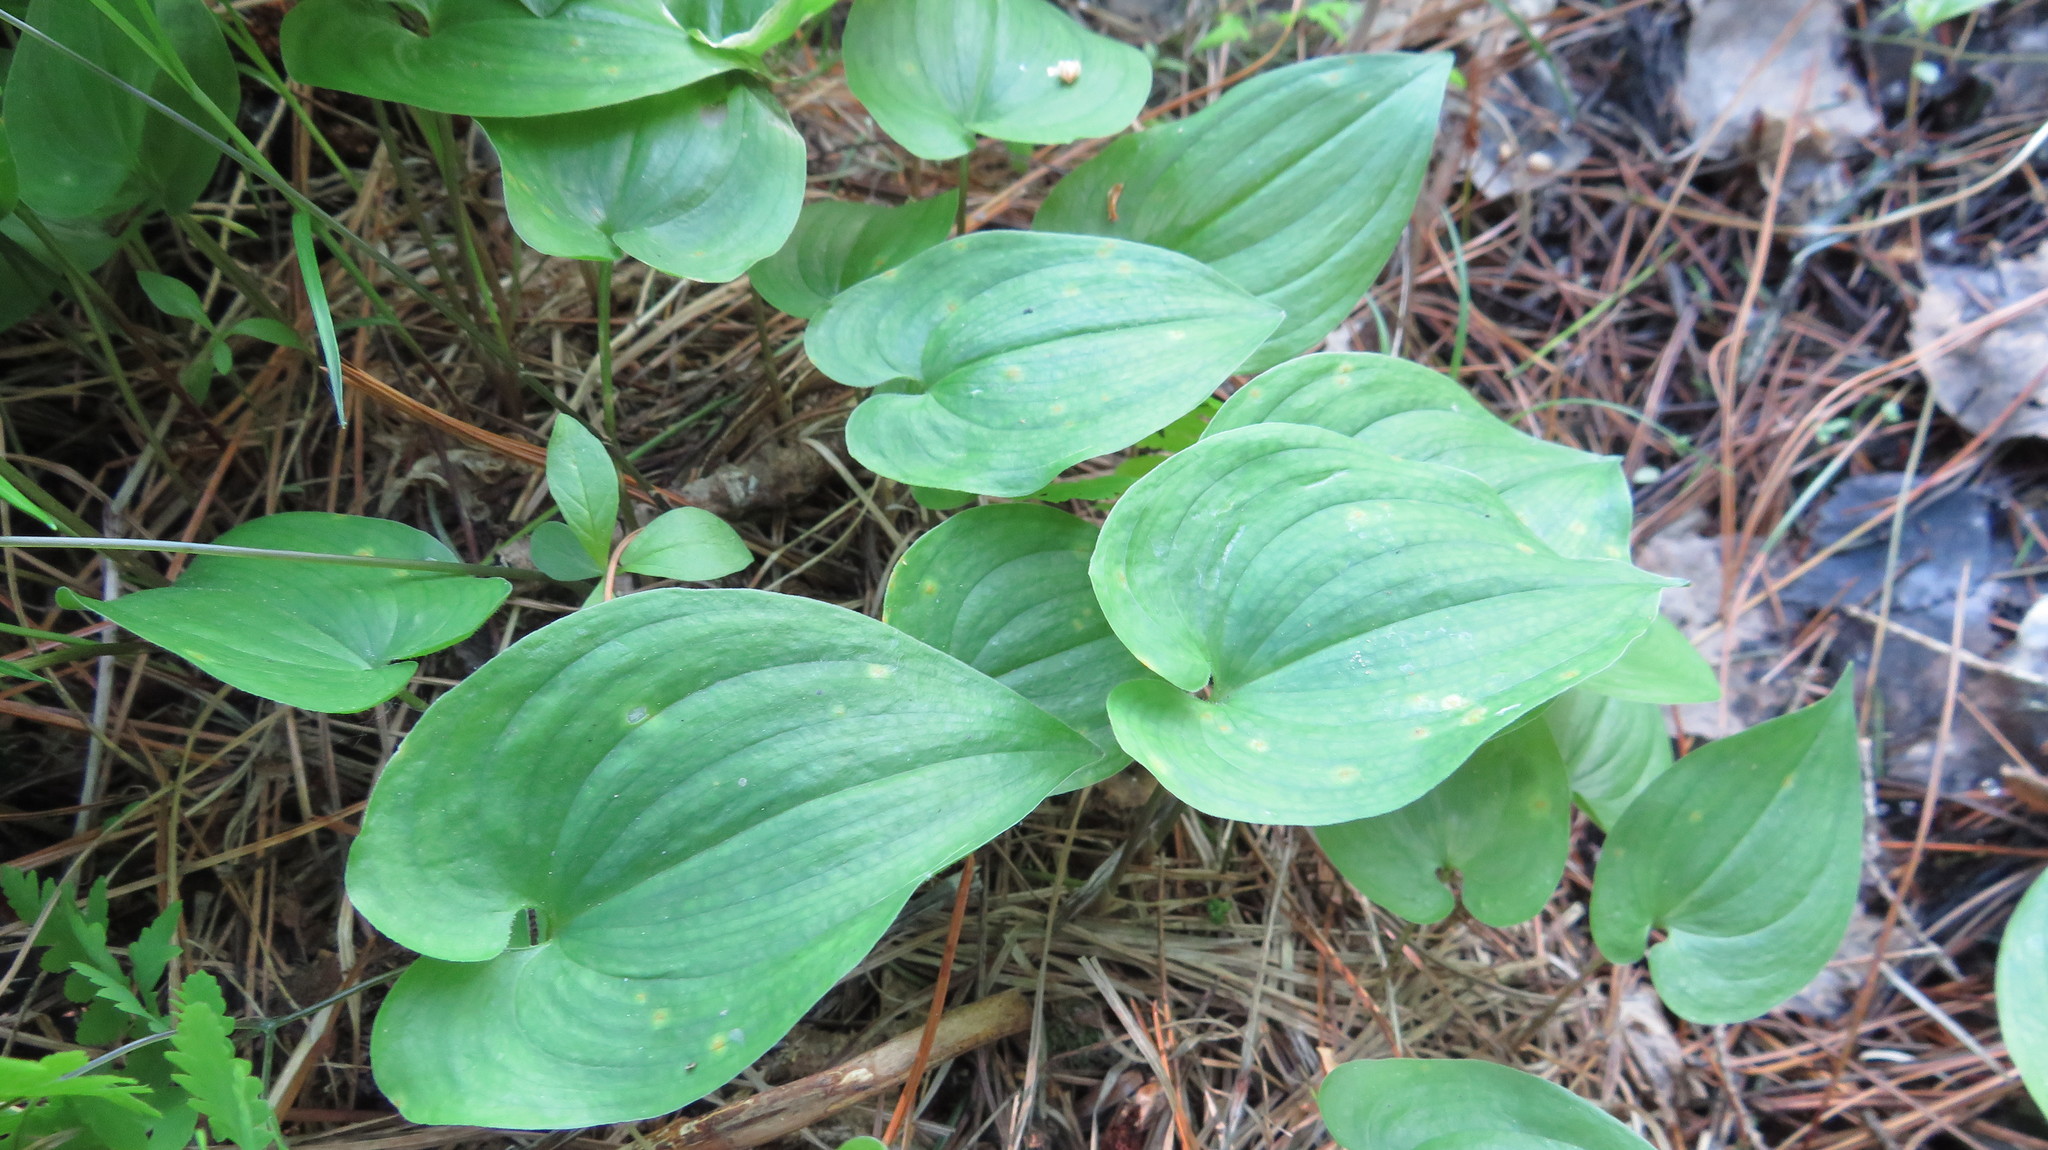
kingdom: Plantae
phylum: Tracheophyta
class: Liliopsida
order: Asparagales
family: Asparagaceae
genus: Maianthemum
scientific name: Maianthemum bifolium
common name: May lily
